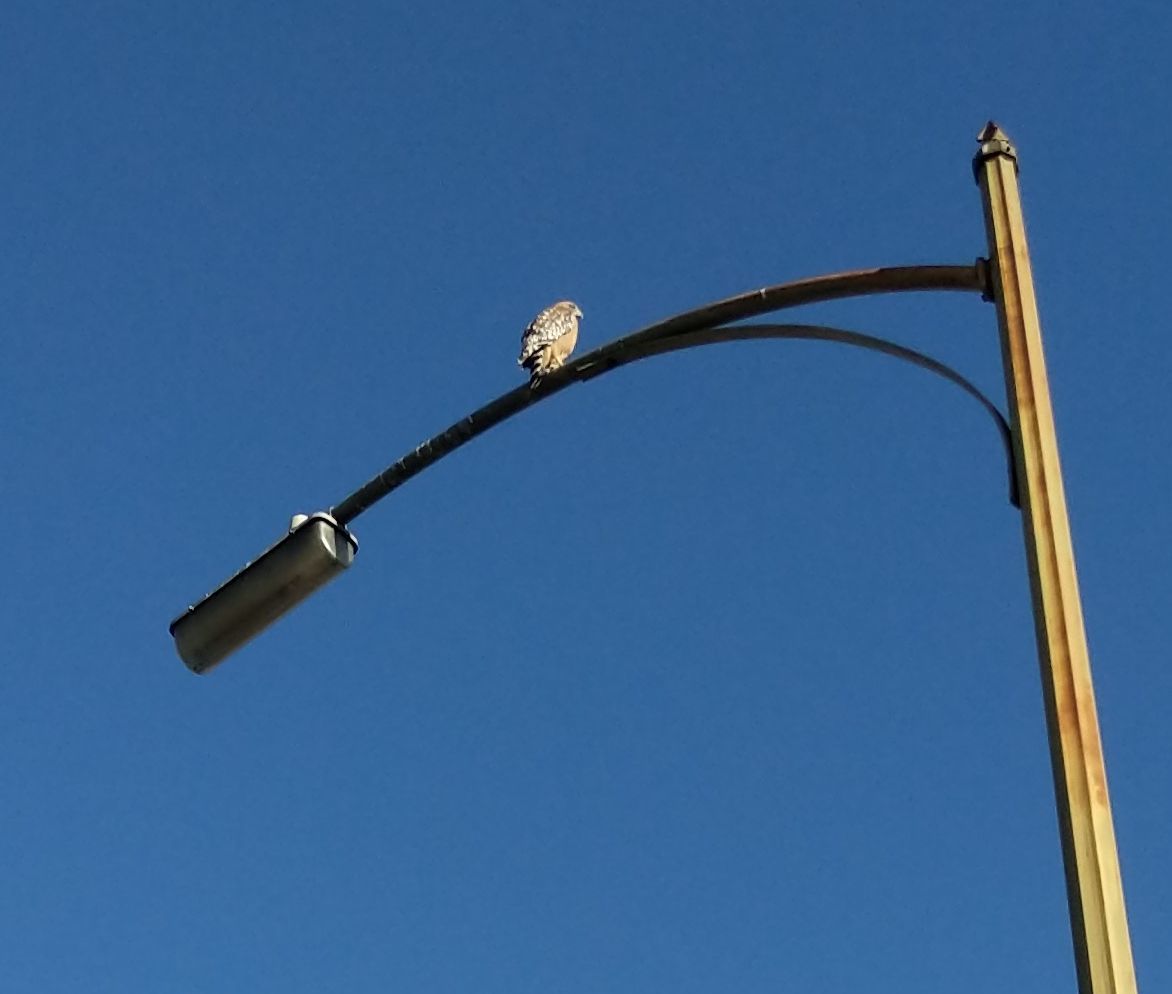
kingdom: Animalia
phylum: Chordata
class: Aves
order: Accipitriformes
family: Accipitridae
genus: Buteo
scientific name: Buteo lineatus
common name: Red-shouldered hawk
